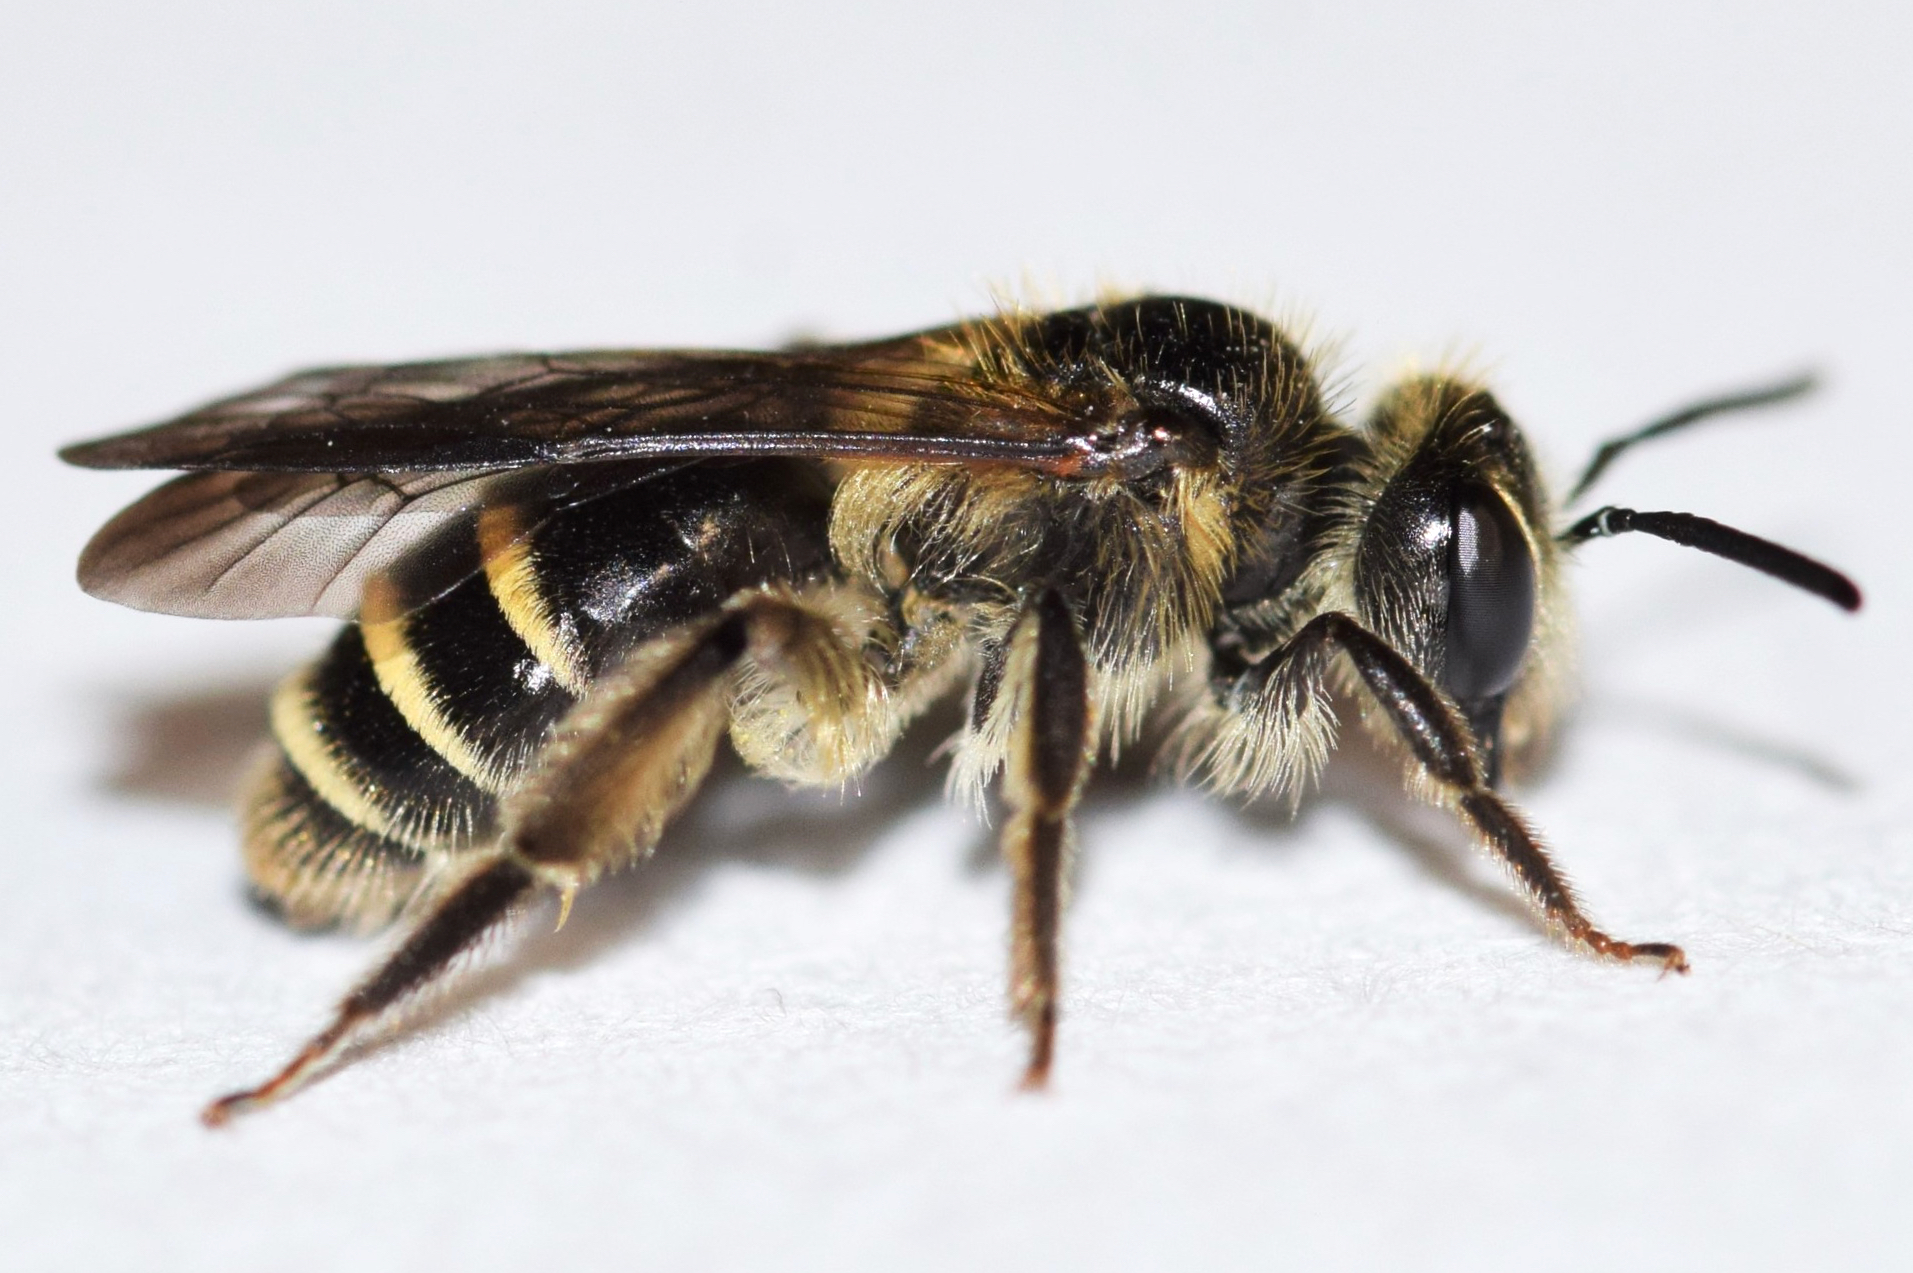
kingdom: Animalia
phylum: Arthropoda
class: Insecta
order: Hymenoptera
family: Andrenidae
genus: Andrena
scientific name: Andrena nubecula
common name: Cloudy-winged mining bee
